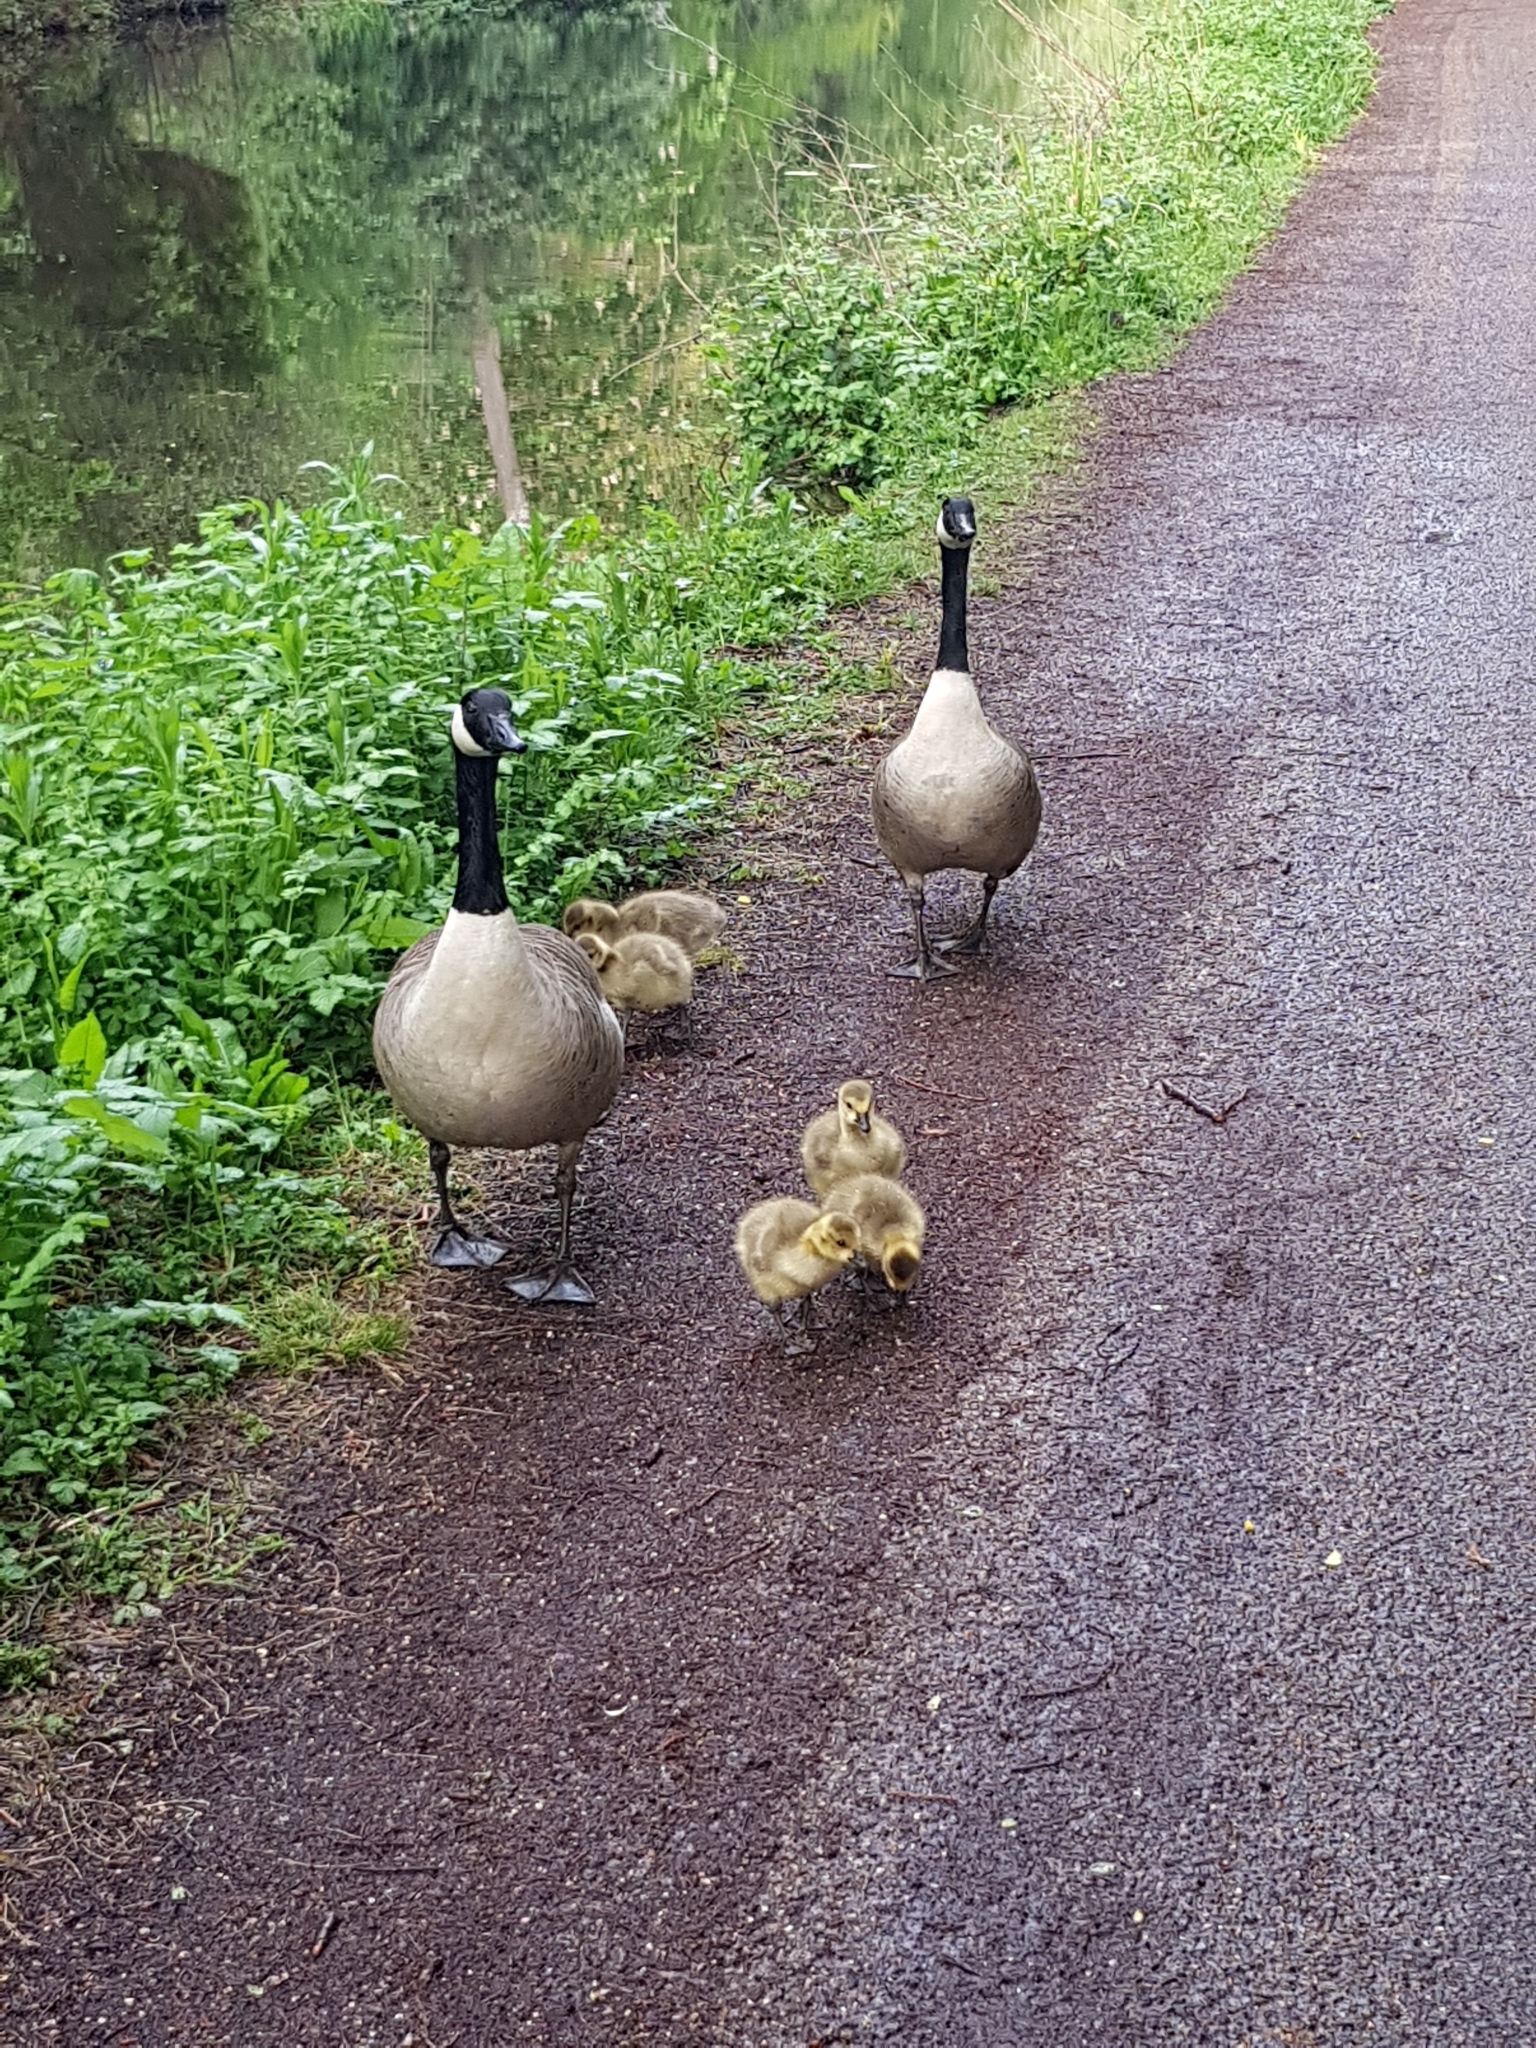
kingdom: Animalia
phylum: Chordata
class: Aves
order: Anseriformes
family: Anatidae
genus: Branta
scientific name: Branta canadensis
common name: Canada goose
